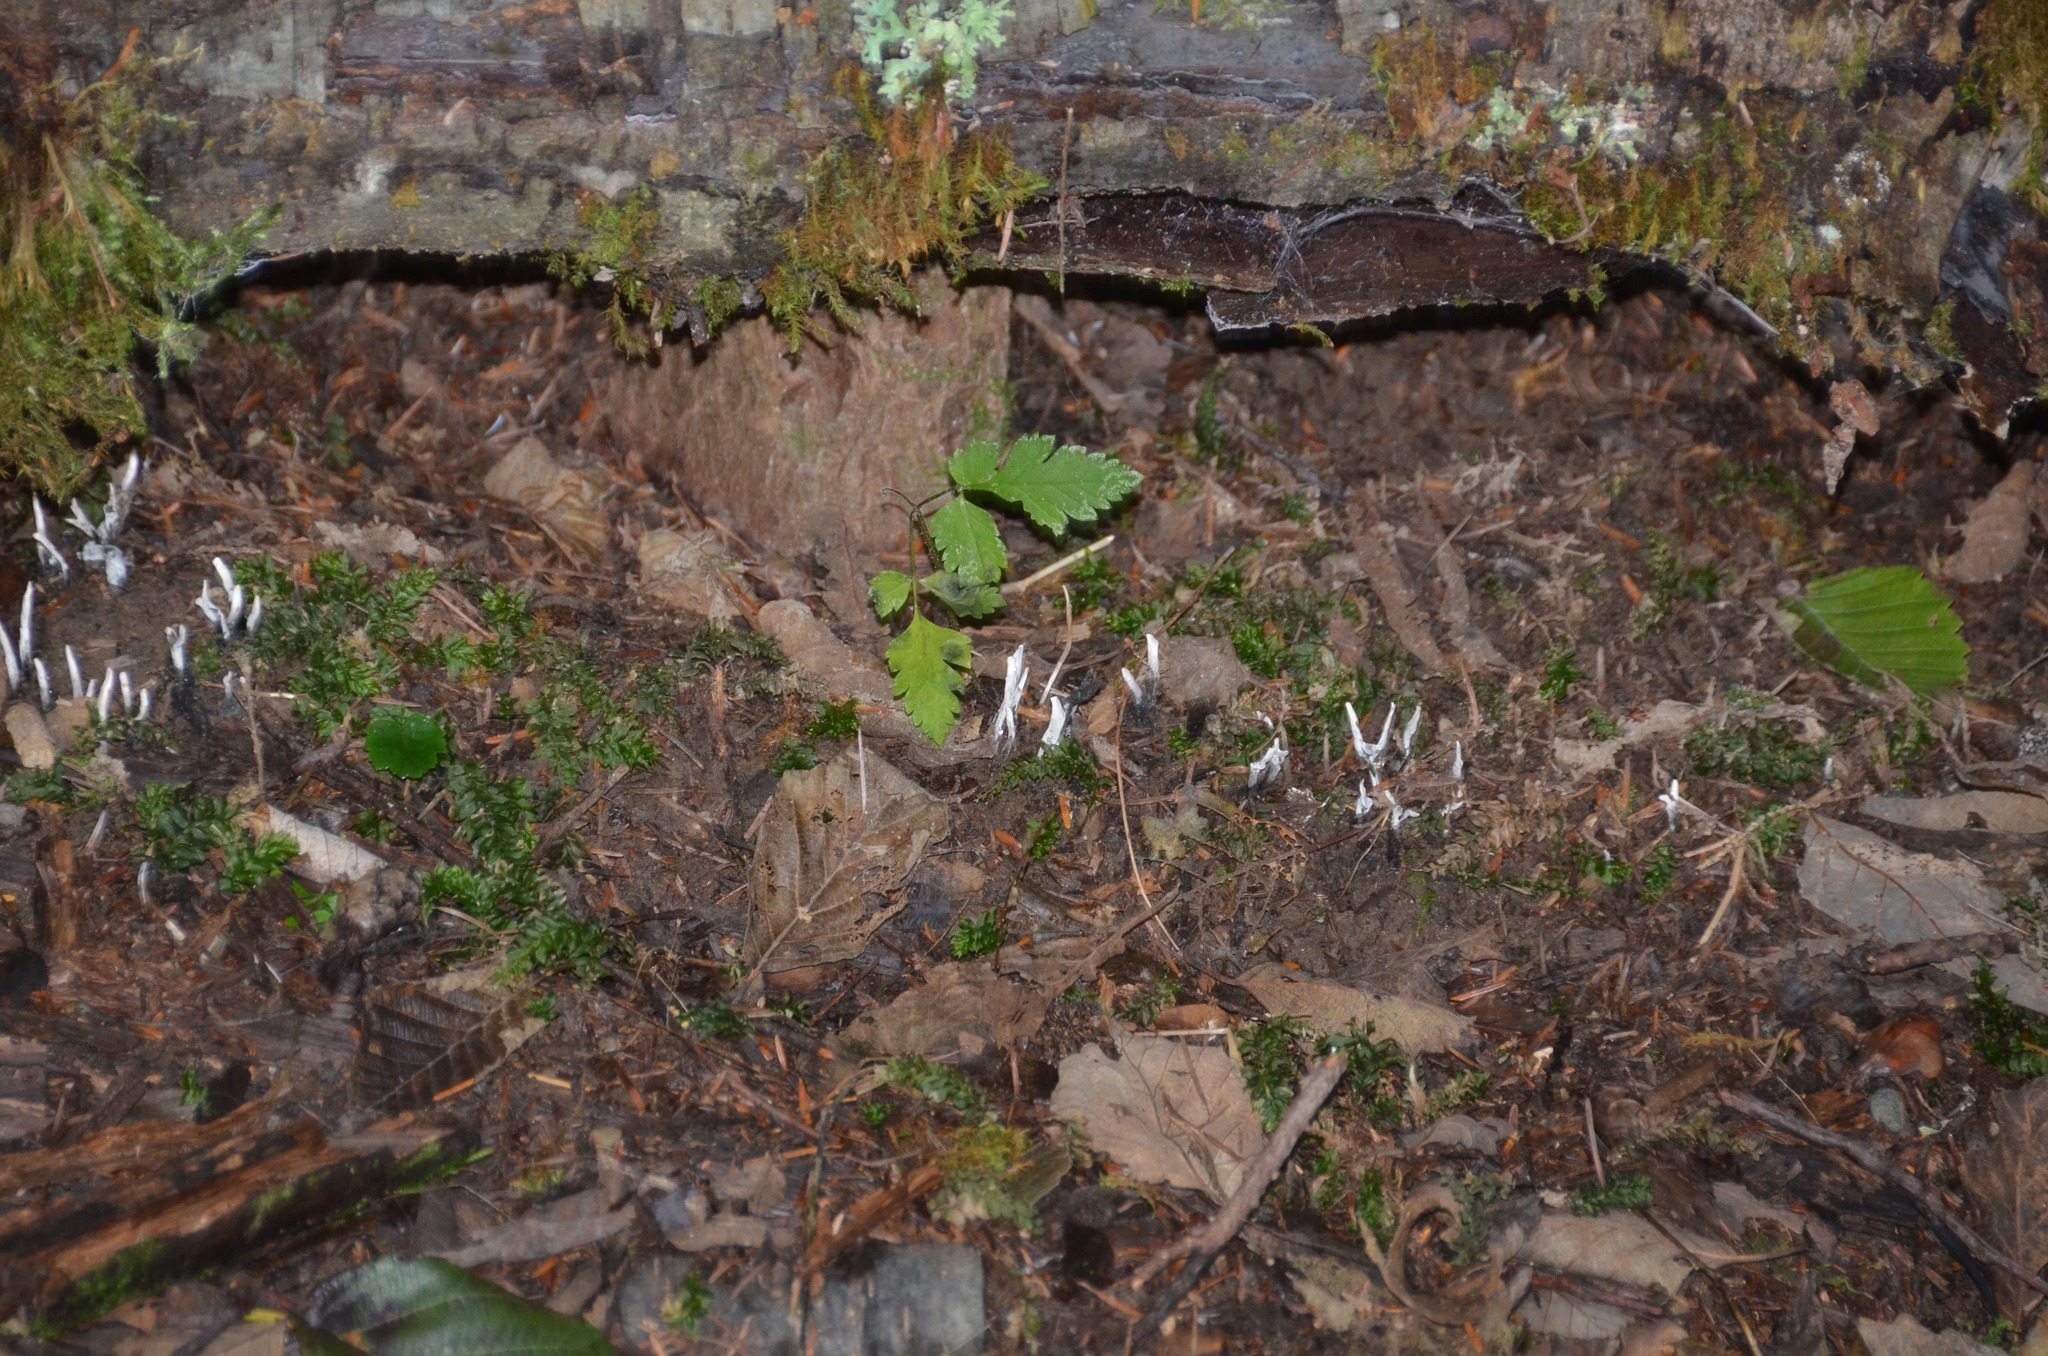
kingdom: Fungi
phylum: Ascomycota
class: Sordariomycetes
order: Xylariales
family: Xylariaceae
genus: Xylaria
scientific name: Xylaria hypoxylon
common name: Candle-snuff fungus
